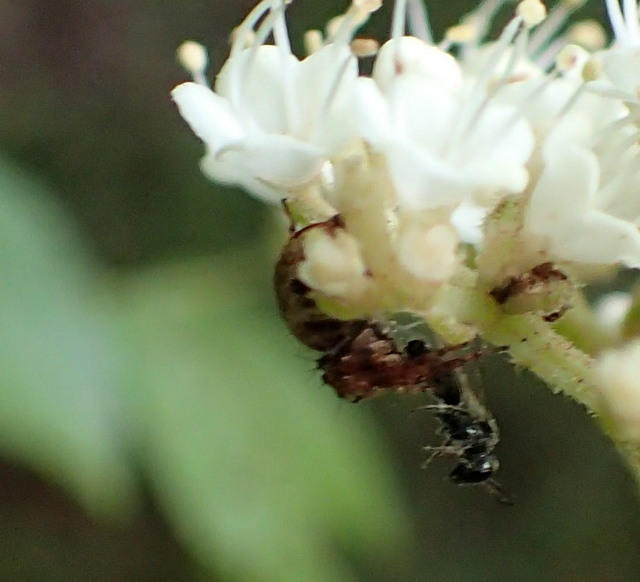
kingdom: Animalia
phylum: Arthropoda
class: Insecta
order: Coleoptera
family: Scarabaeidae
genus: Trigonopeltastes
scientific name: Trigonopeltastes delta
